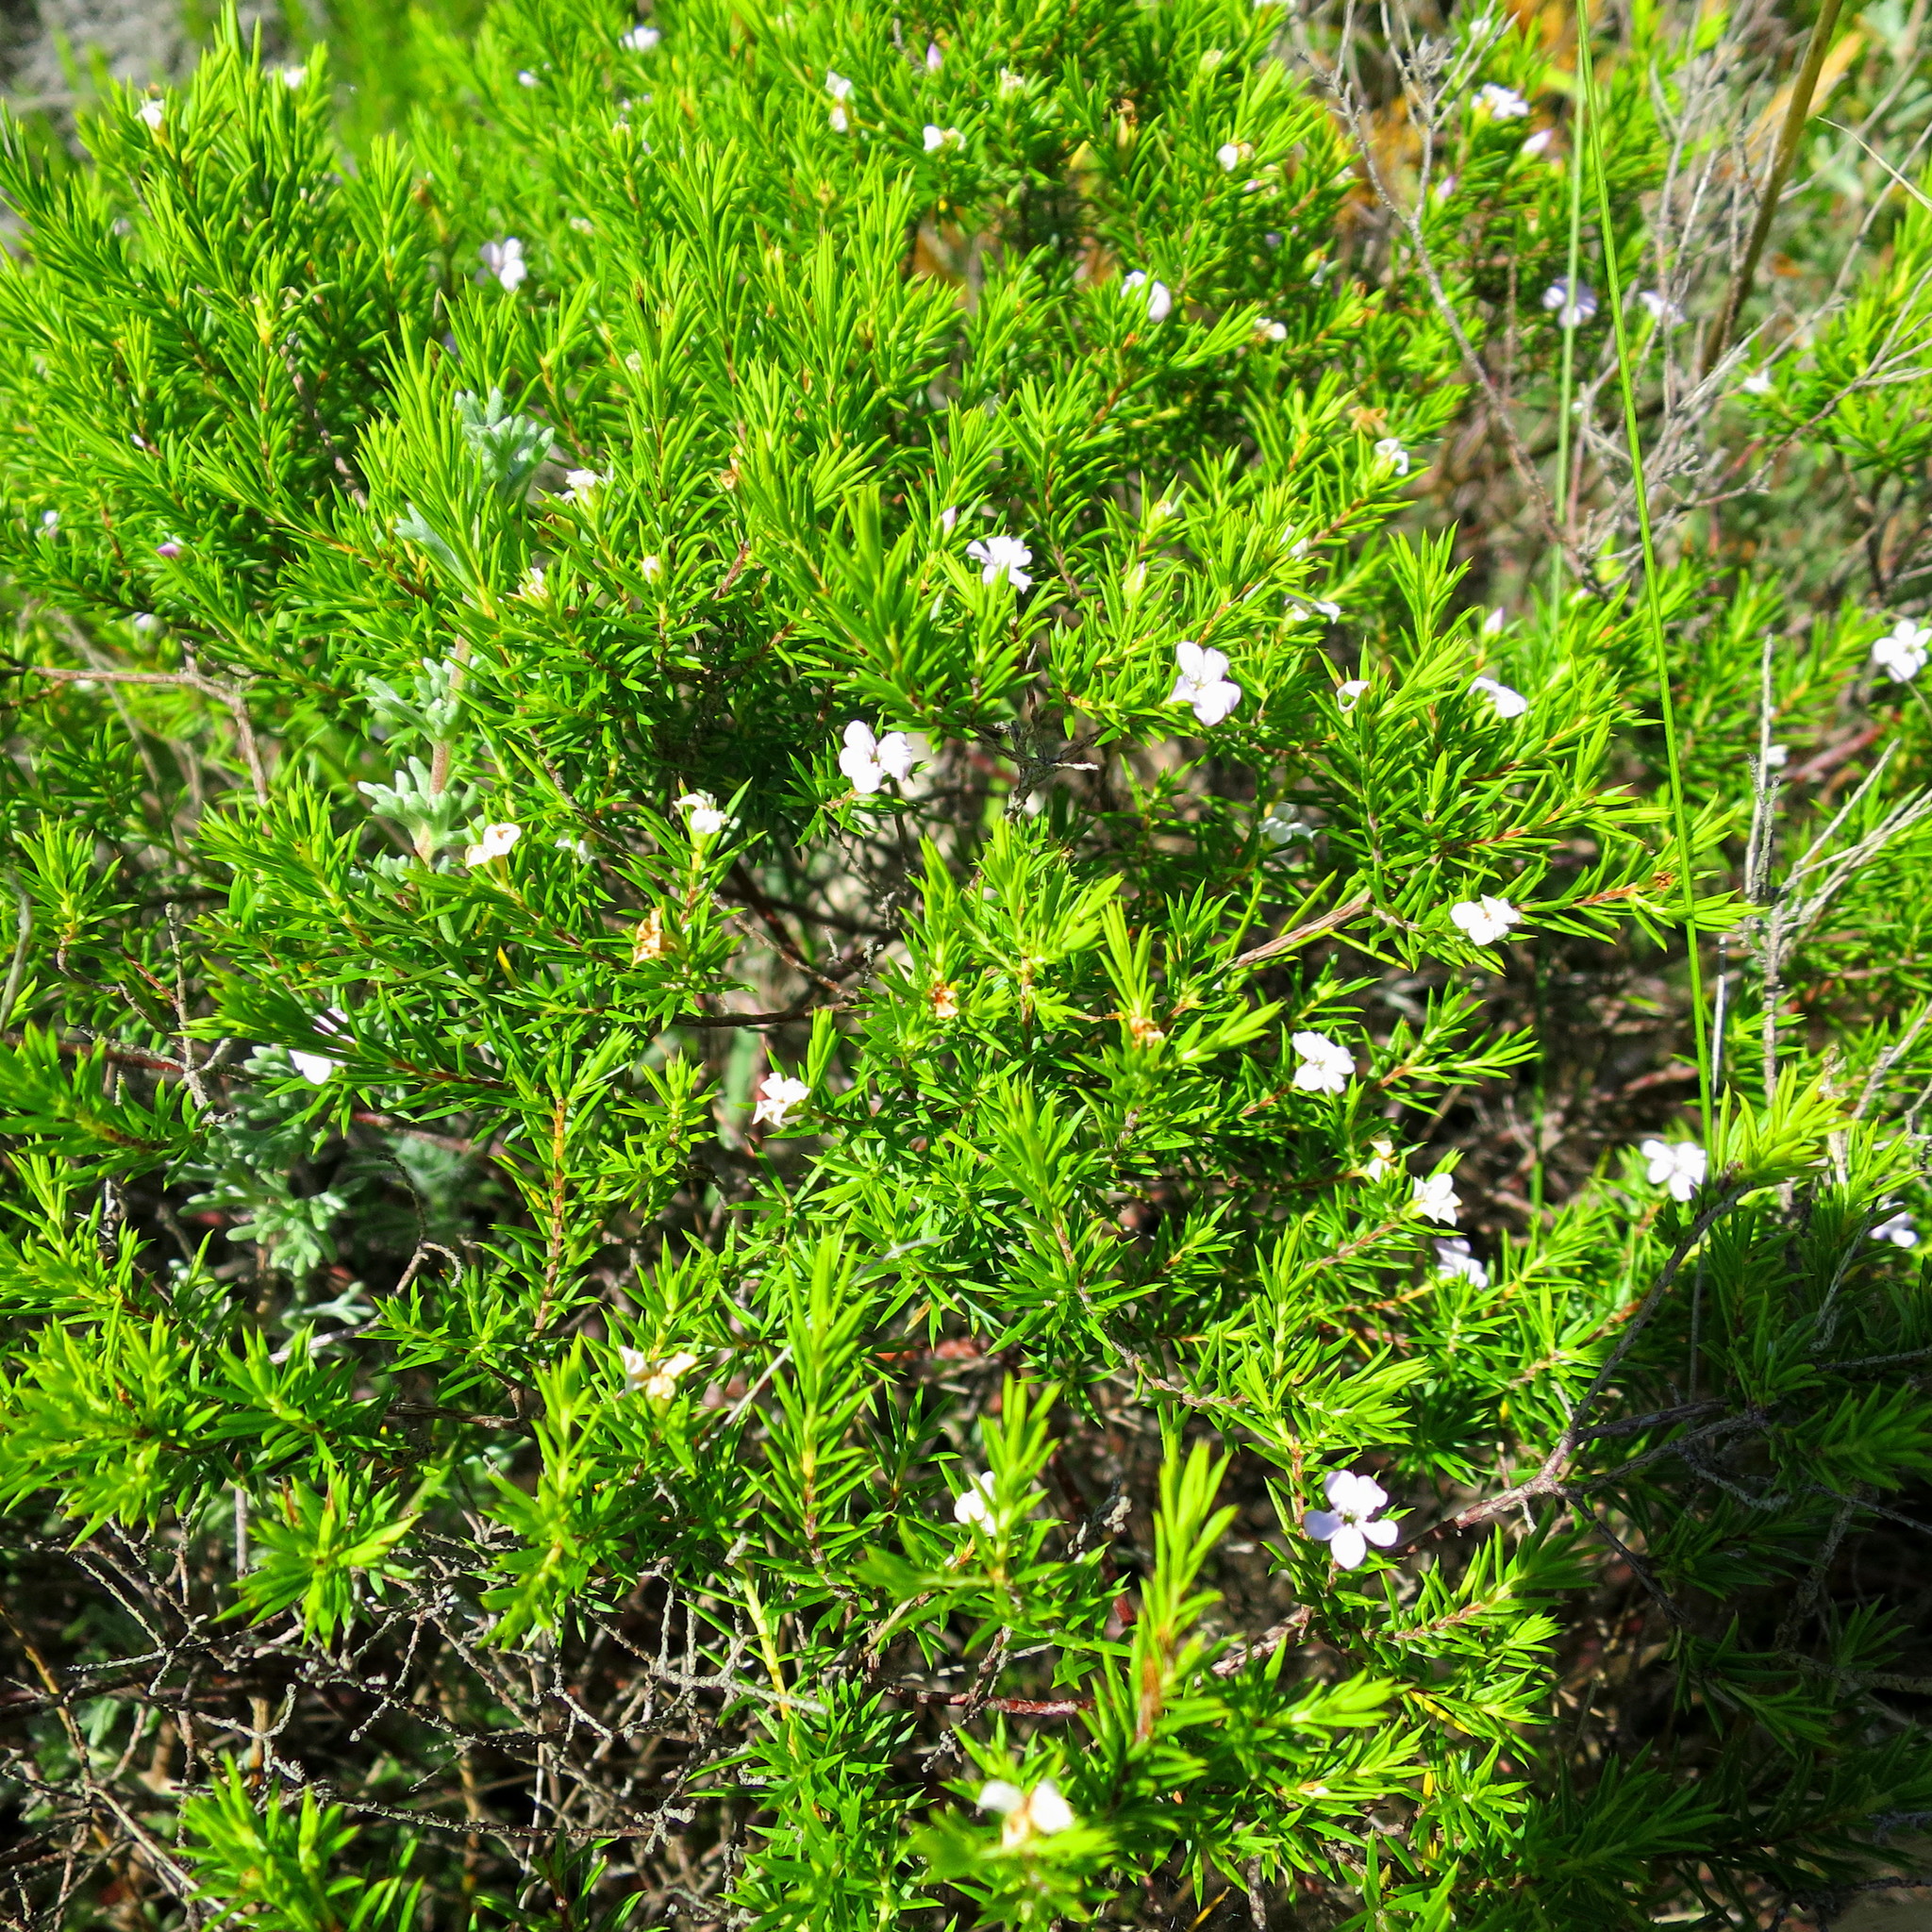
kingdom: Plantae
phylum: Tracheophyta
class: Magnoliopsida
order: Sapindales
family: Rutaceae
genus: Coleonema
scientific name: Coleonema pulchellum
